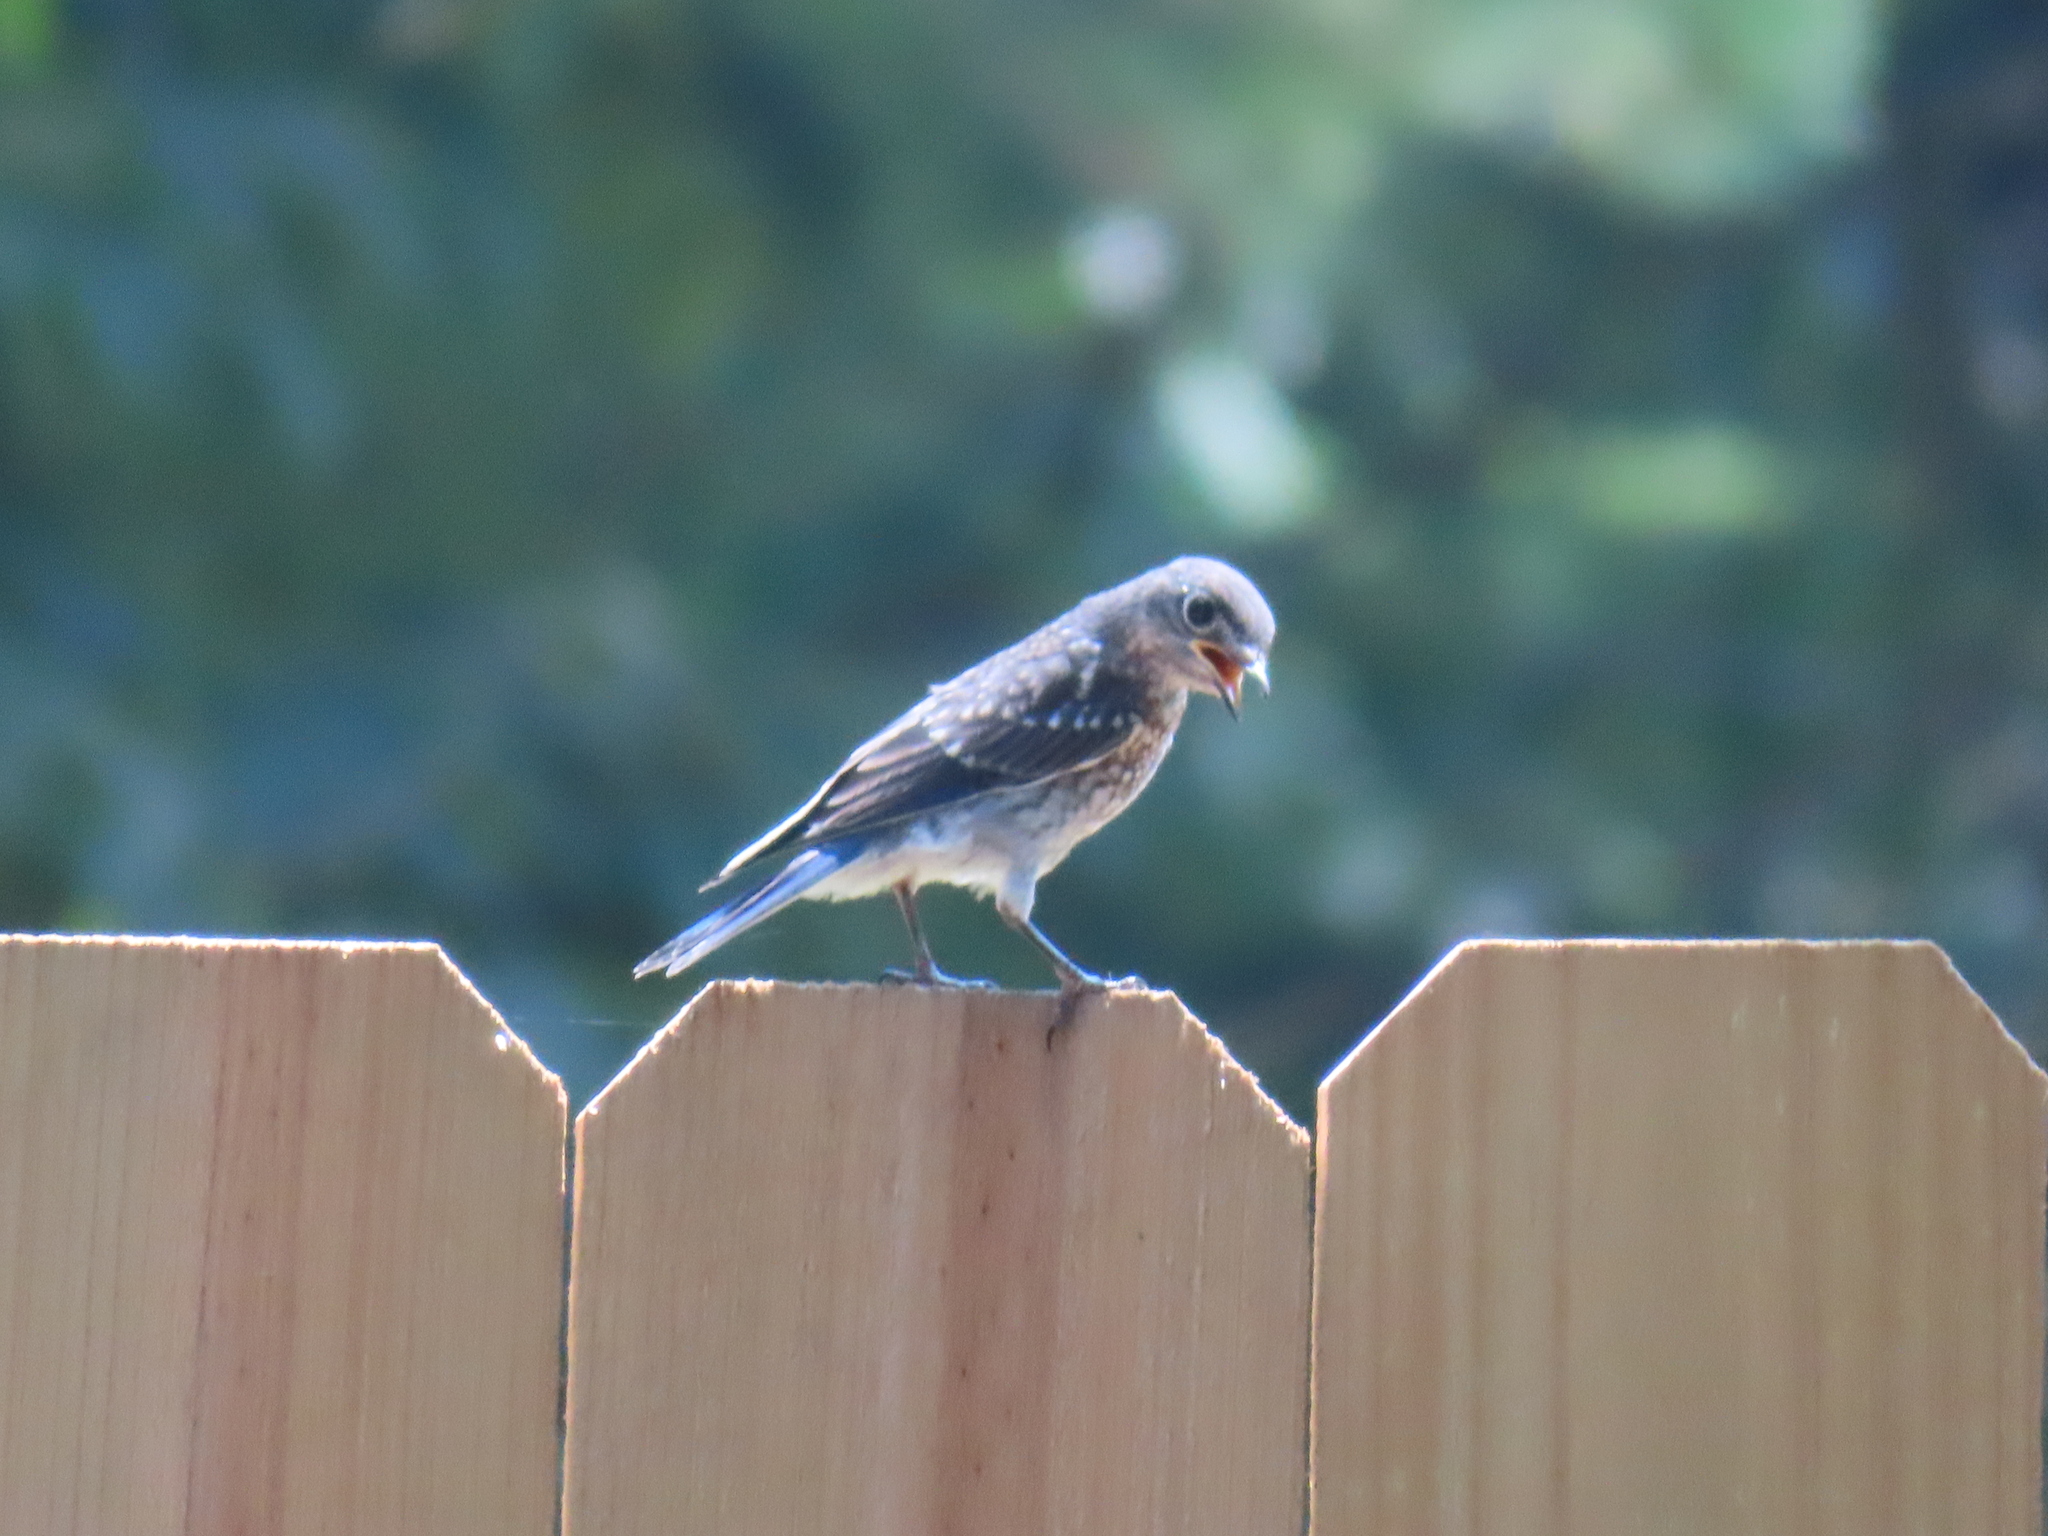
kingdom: Animalia
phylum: Chordata
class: Aves
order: Passeriformes
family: Turdidae
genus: Sialia
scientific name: Sialia sialis
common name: Eastern bluebird
